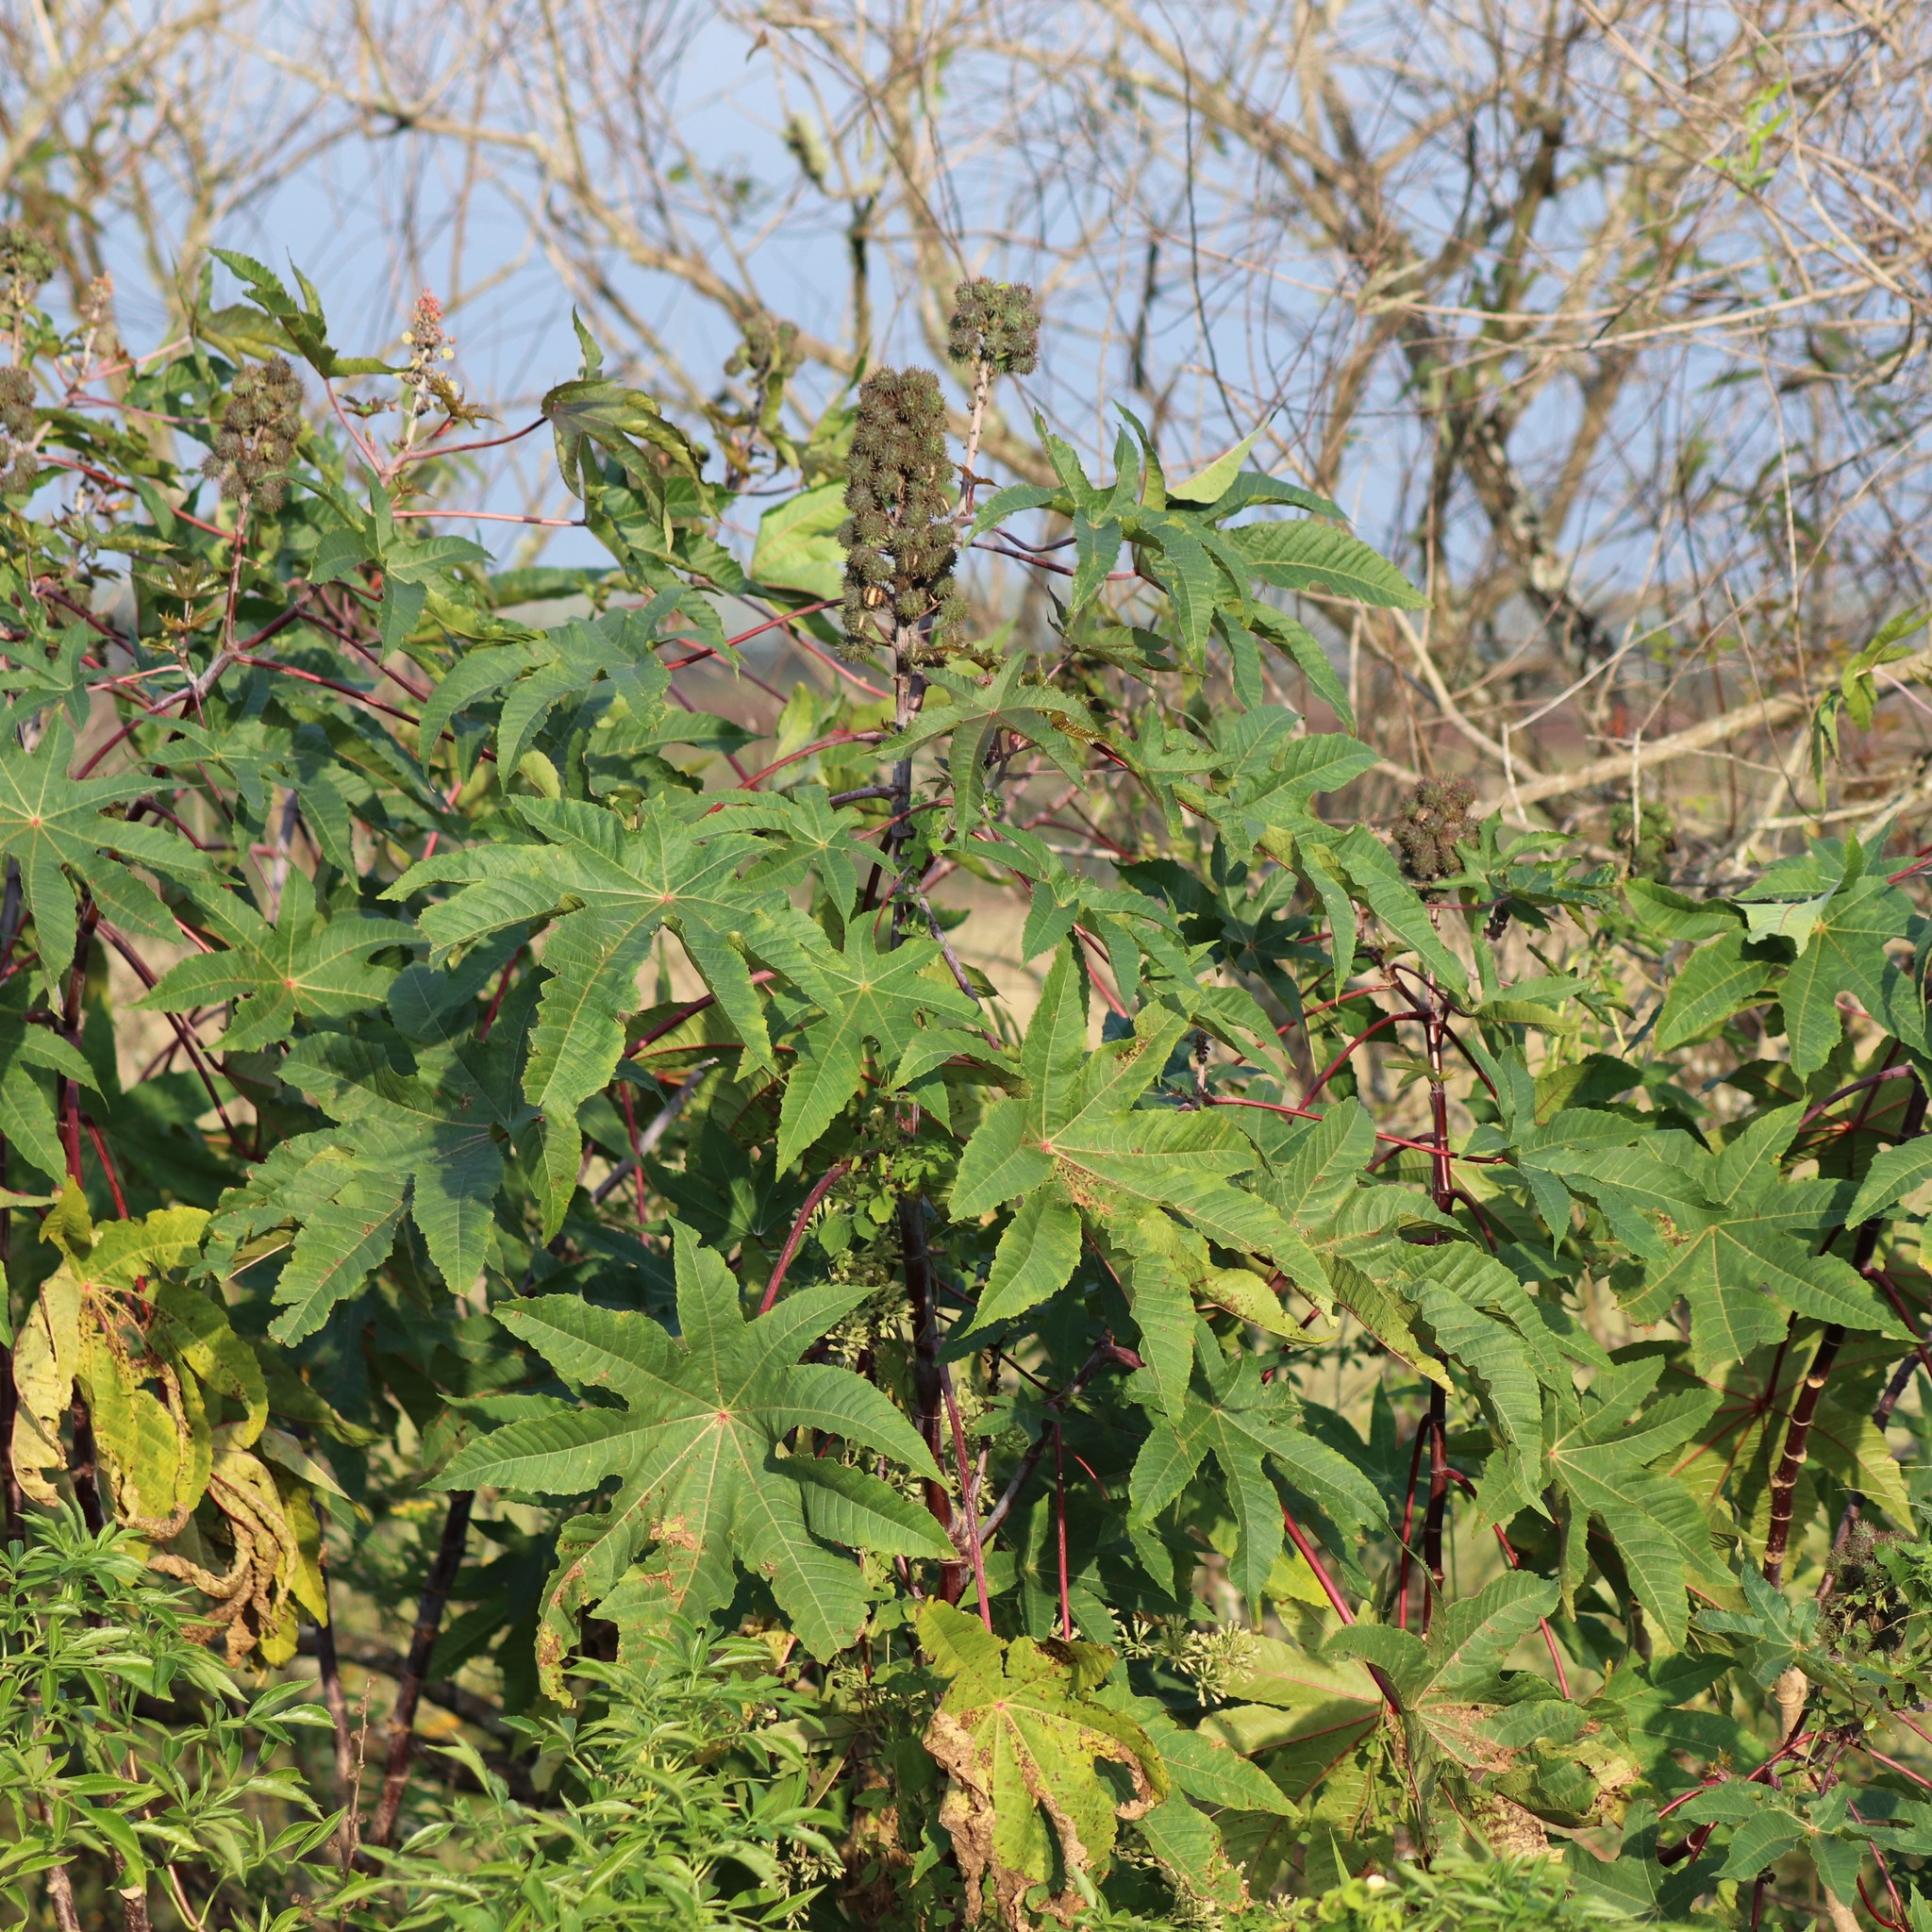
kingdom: Plantae
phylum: Tracheophyta
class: Magnoliopsida
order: Malpighiales
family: Euphorbiaceae
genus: Ricinus
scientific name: Ricinus communis
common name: Castor-oil-plant
